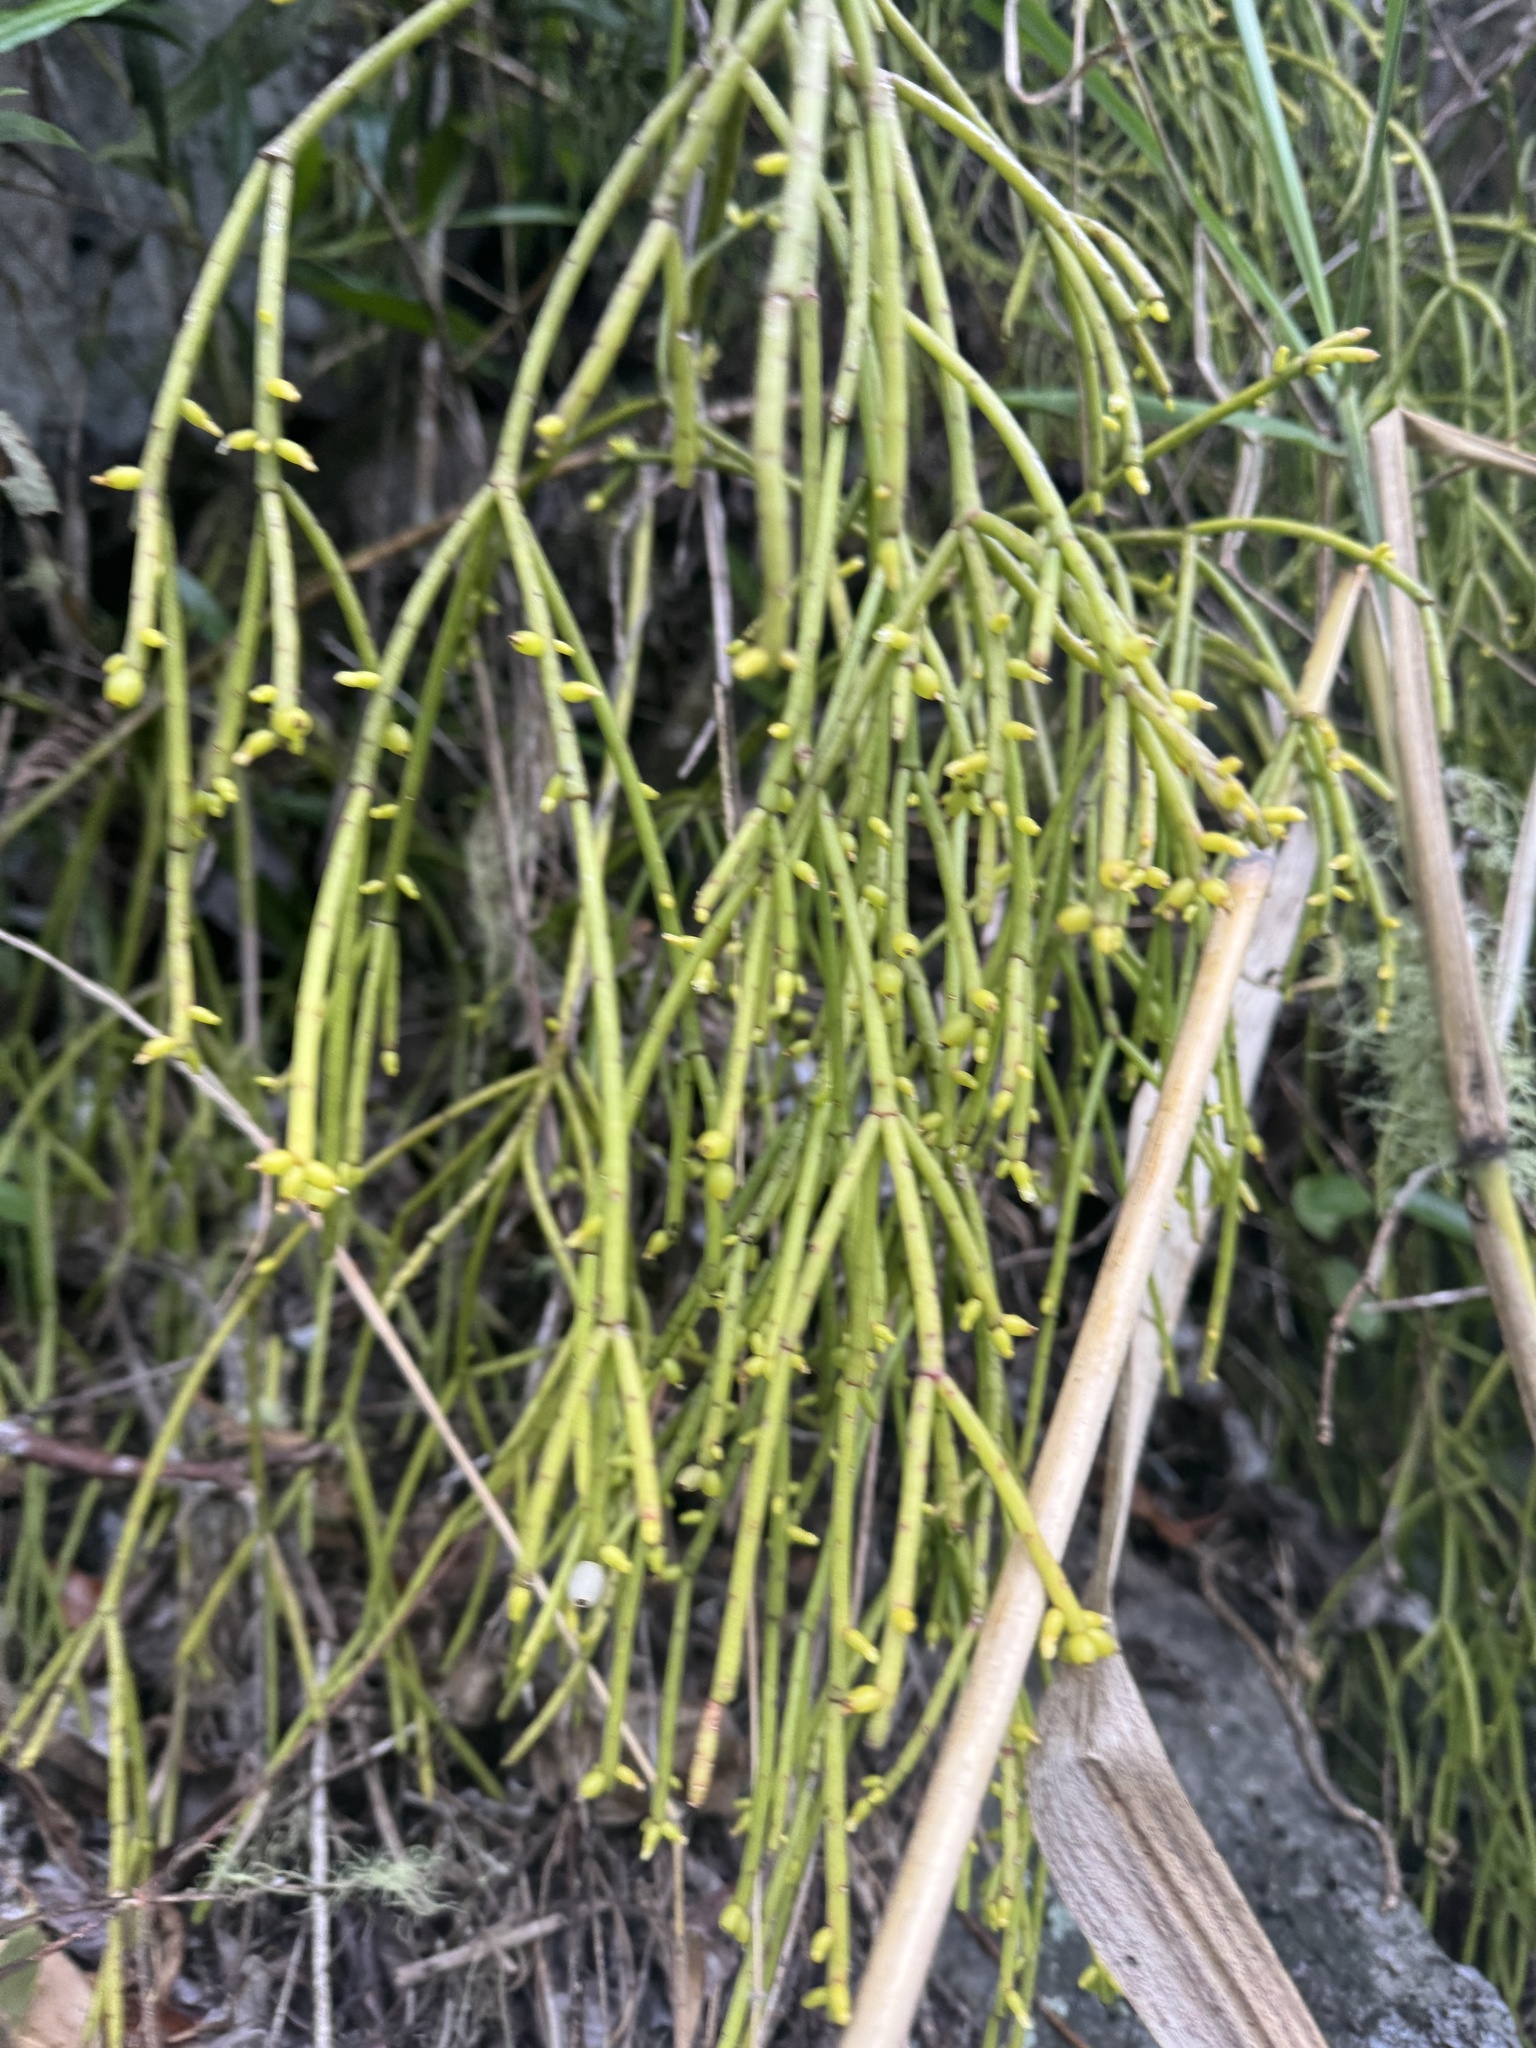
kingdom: Plantae
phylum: Tracheophyta
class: Magnoliopsida
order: Caryophyllales
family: Cactaceae
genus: Rhipsalis
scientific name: Rhipsalis baccifera
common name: Mistletoe cactus
